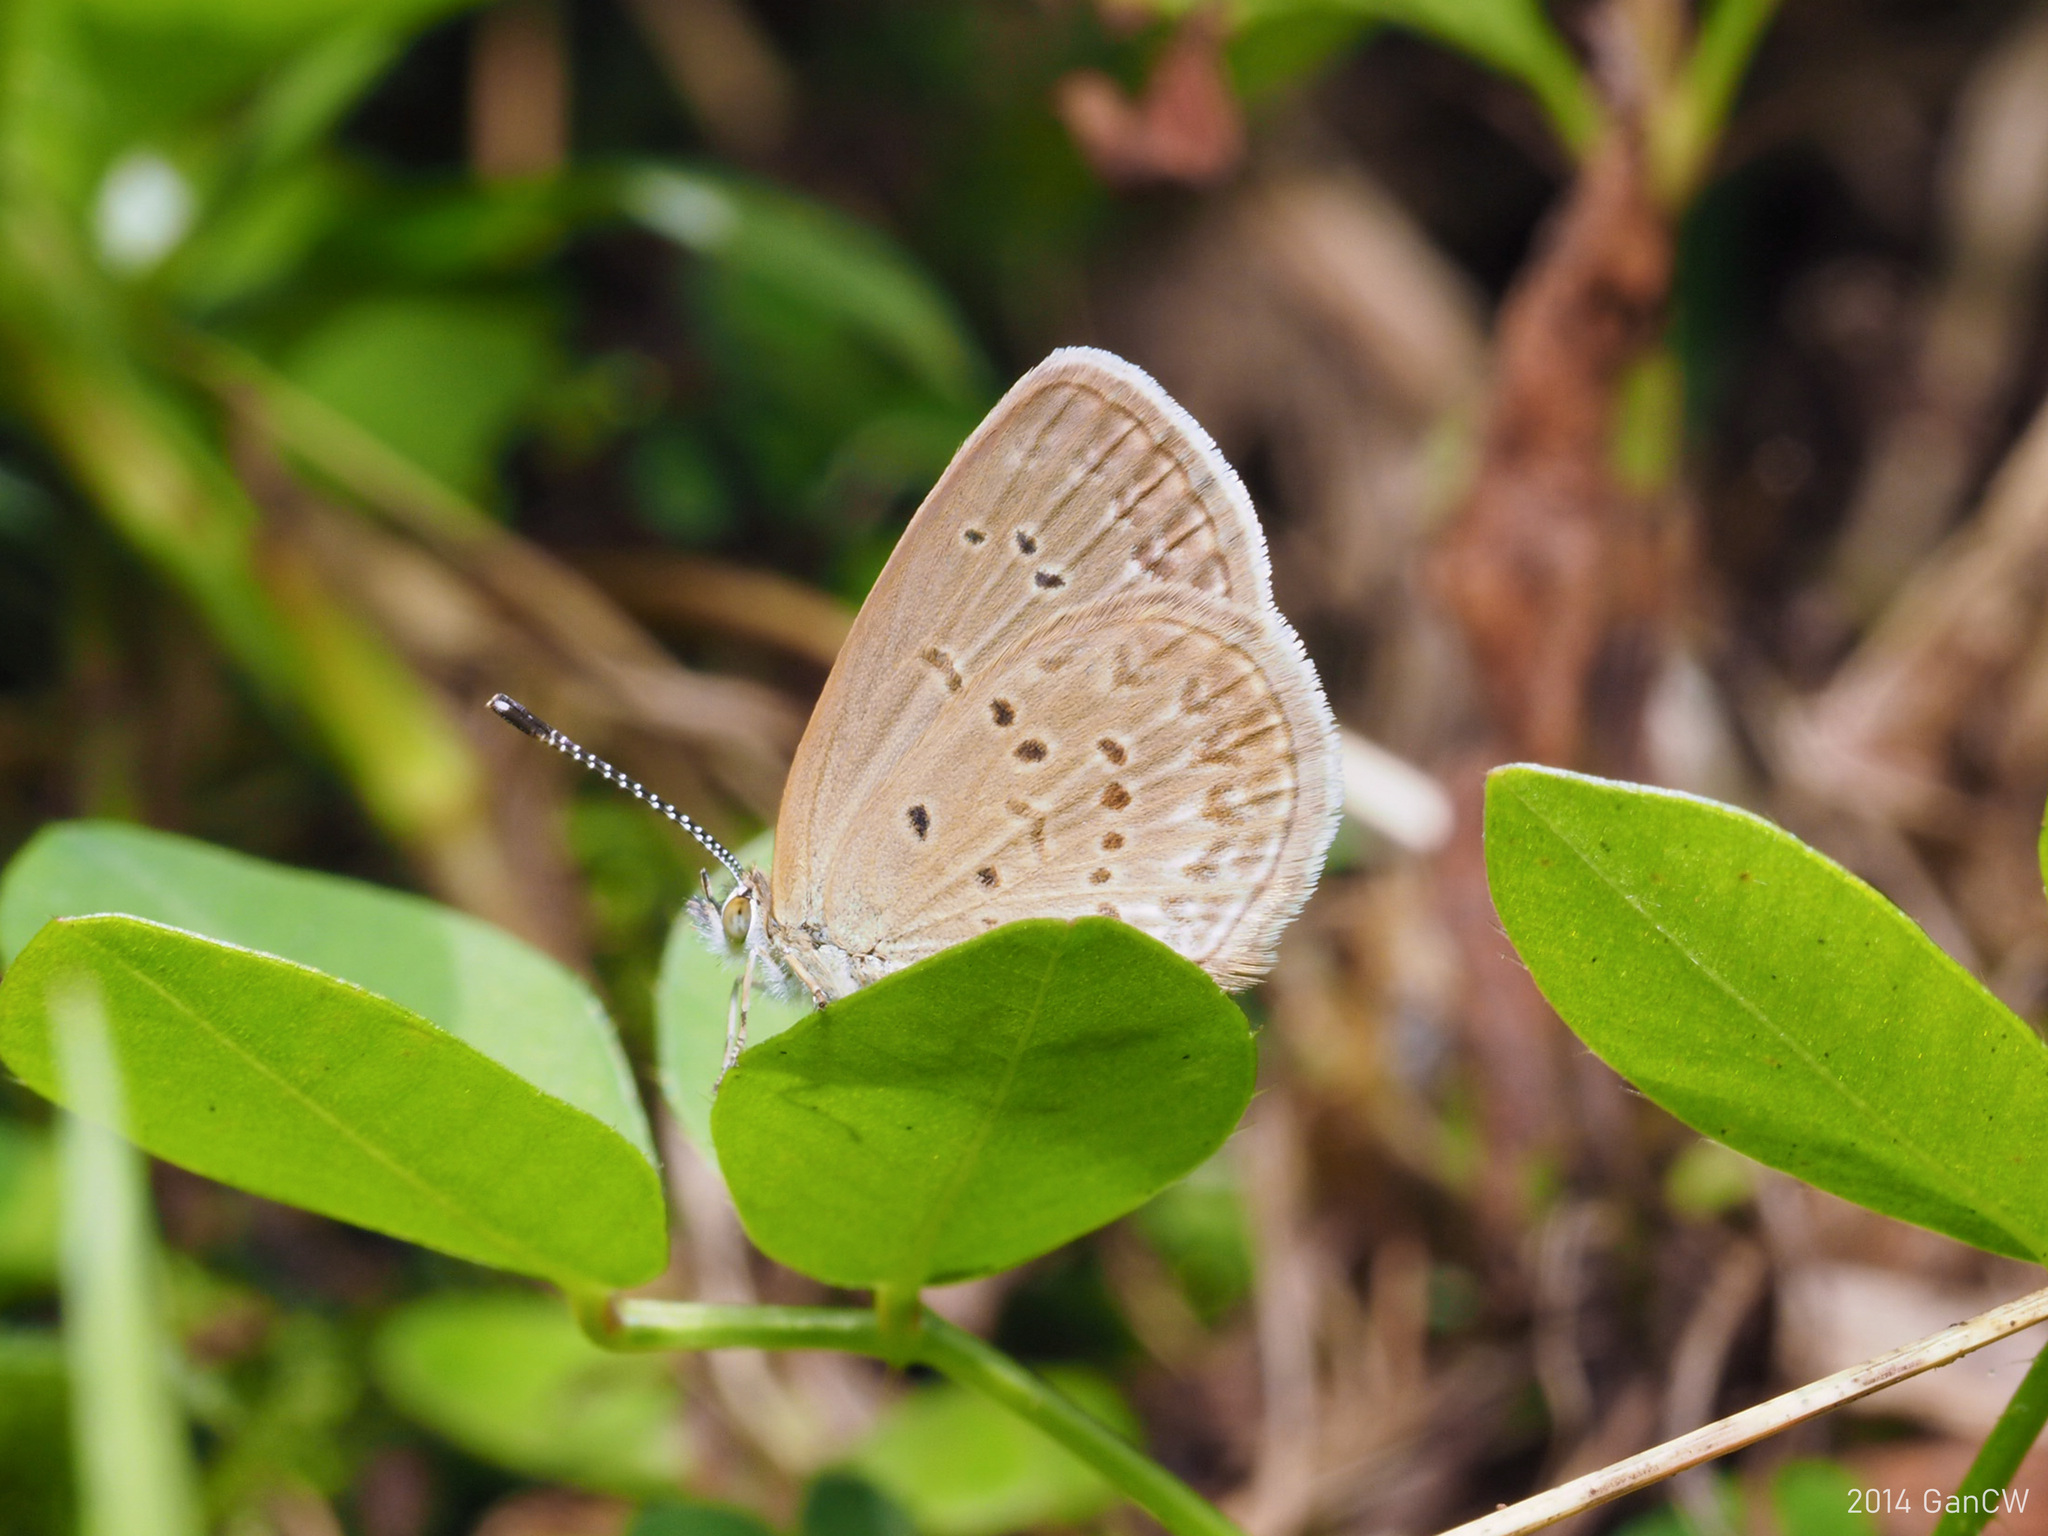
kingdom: Animalia
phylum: Arthropoda
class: Insecta
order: Lepidoptera
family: Lycaenidae
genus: Zizina
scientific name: Zizina otis
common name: Lesser grass blue
